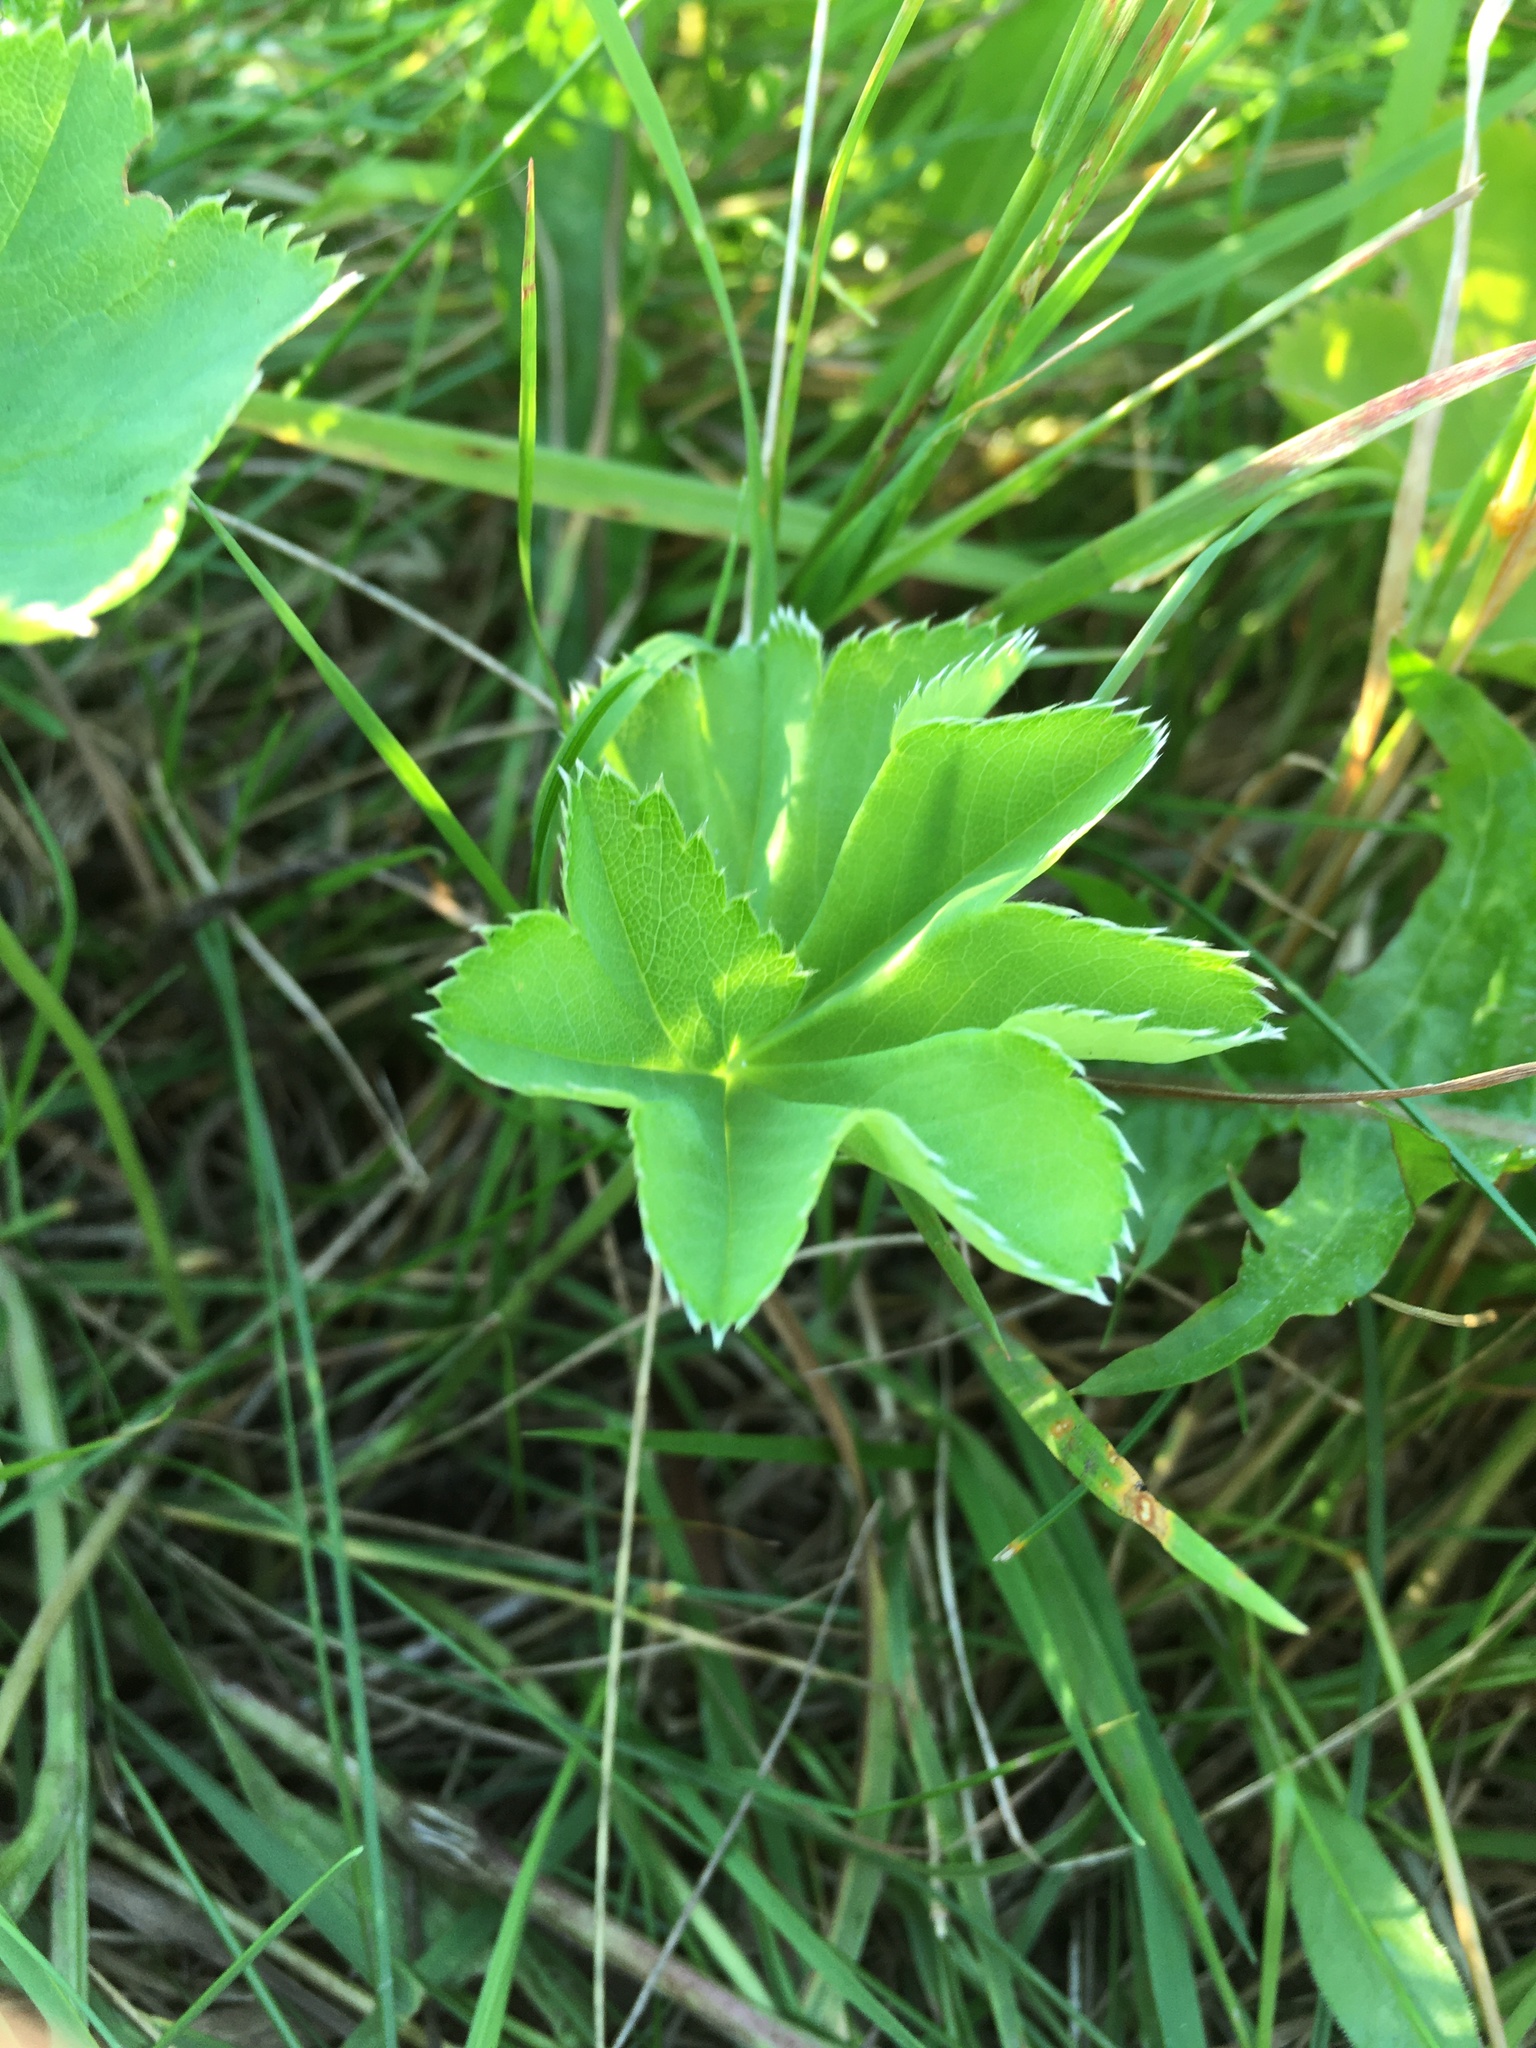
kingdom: Plantae
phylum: Tracheophyta
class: Magnoliopsida
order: Rosales
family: Rosaceae
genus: Alchemilla
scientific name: Alchemilla
